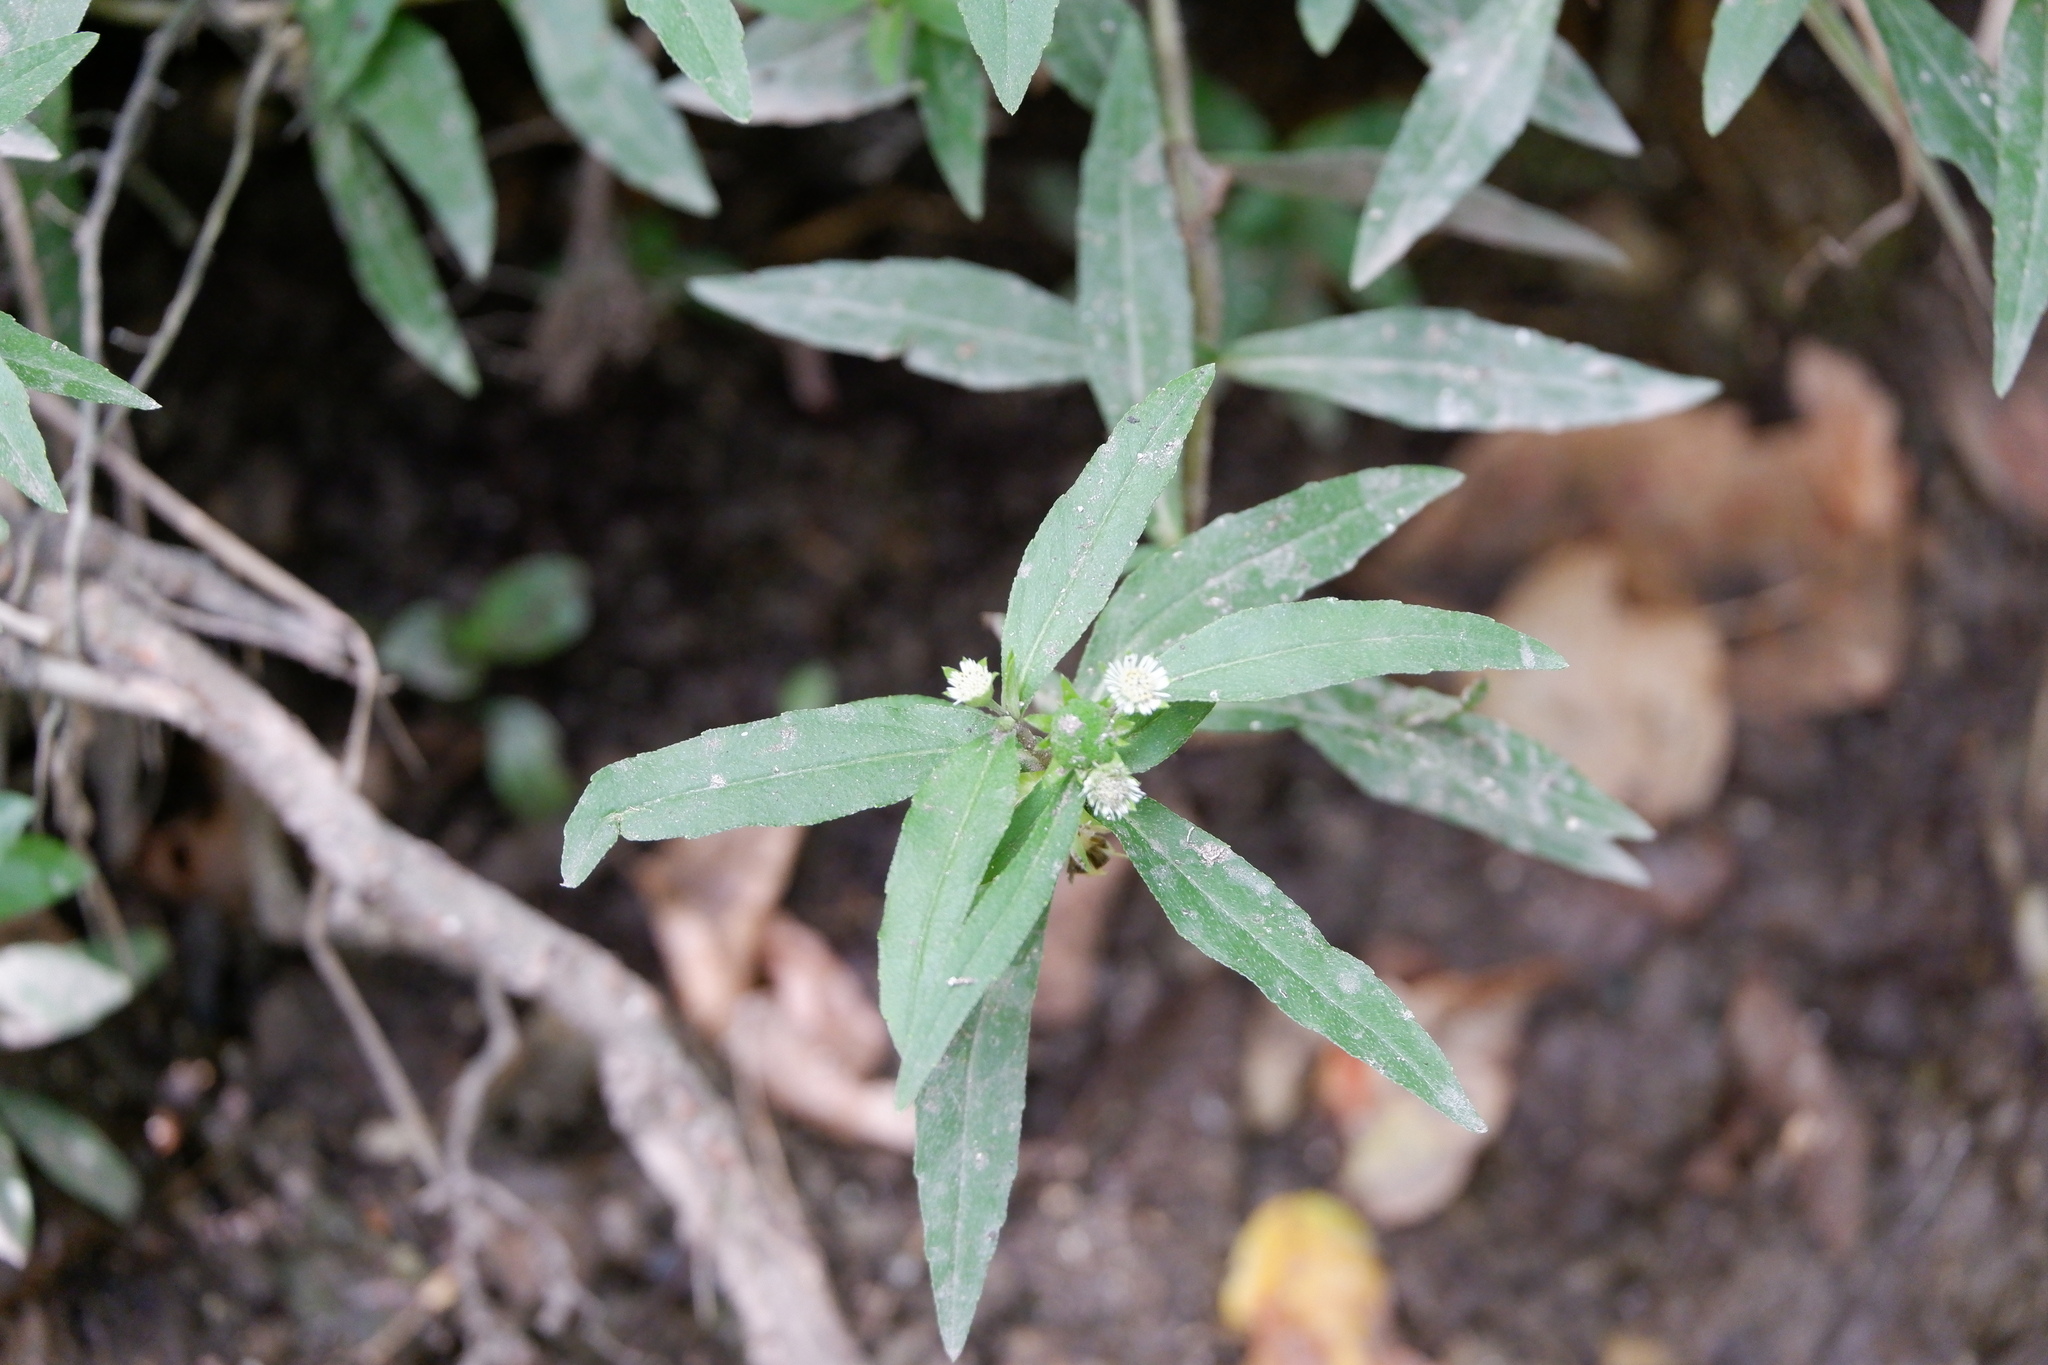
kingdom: Plantae
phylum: Tracheophyta
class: Magnoliopsida
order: Asterales
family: Asteraceae
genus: Eclipta
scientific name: Eclipta prostrata
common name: False daisy
